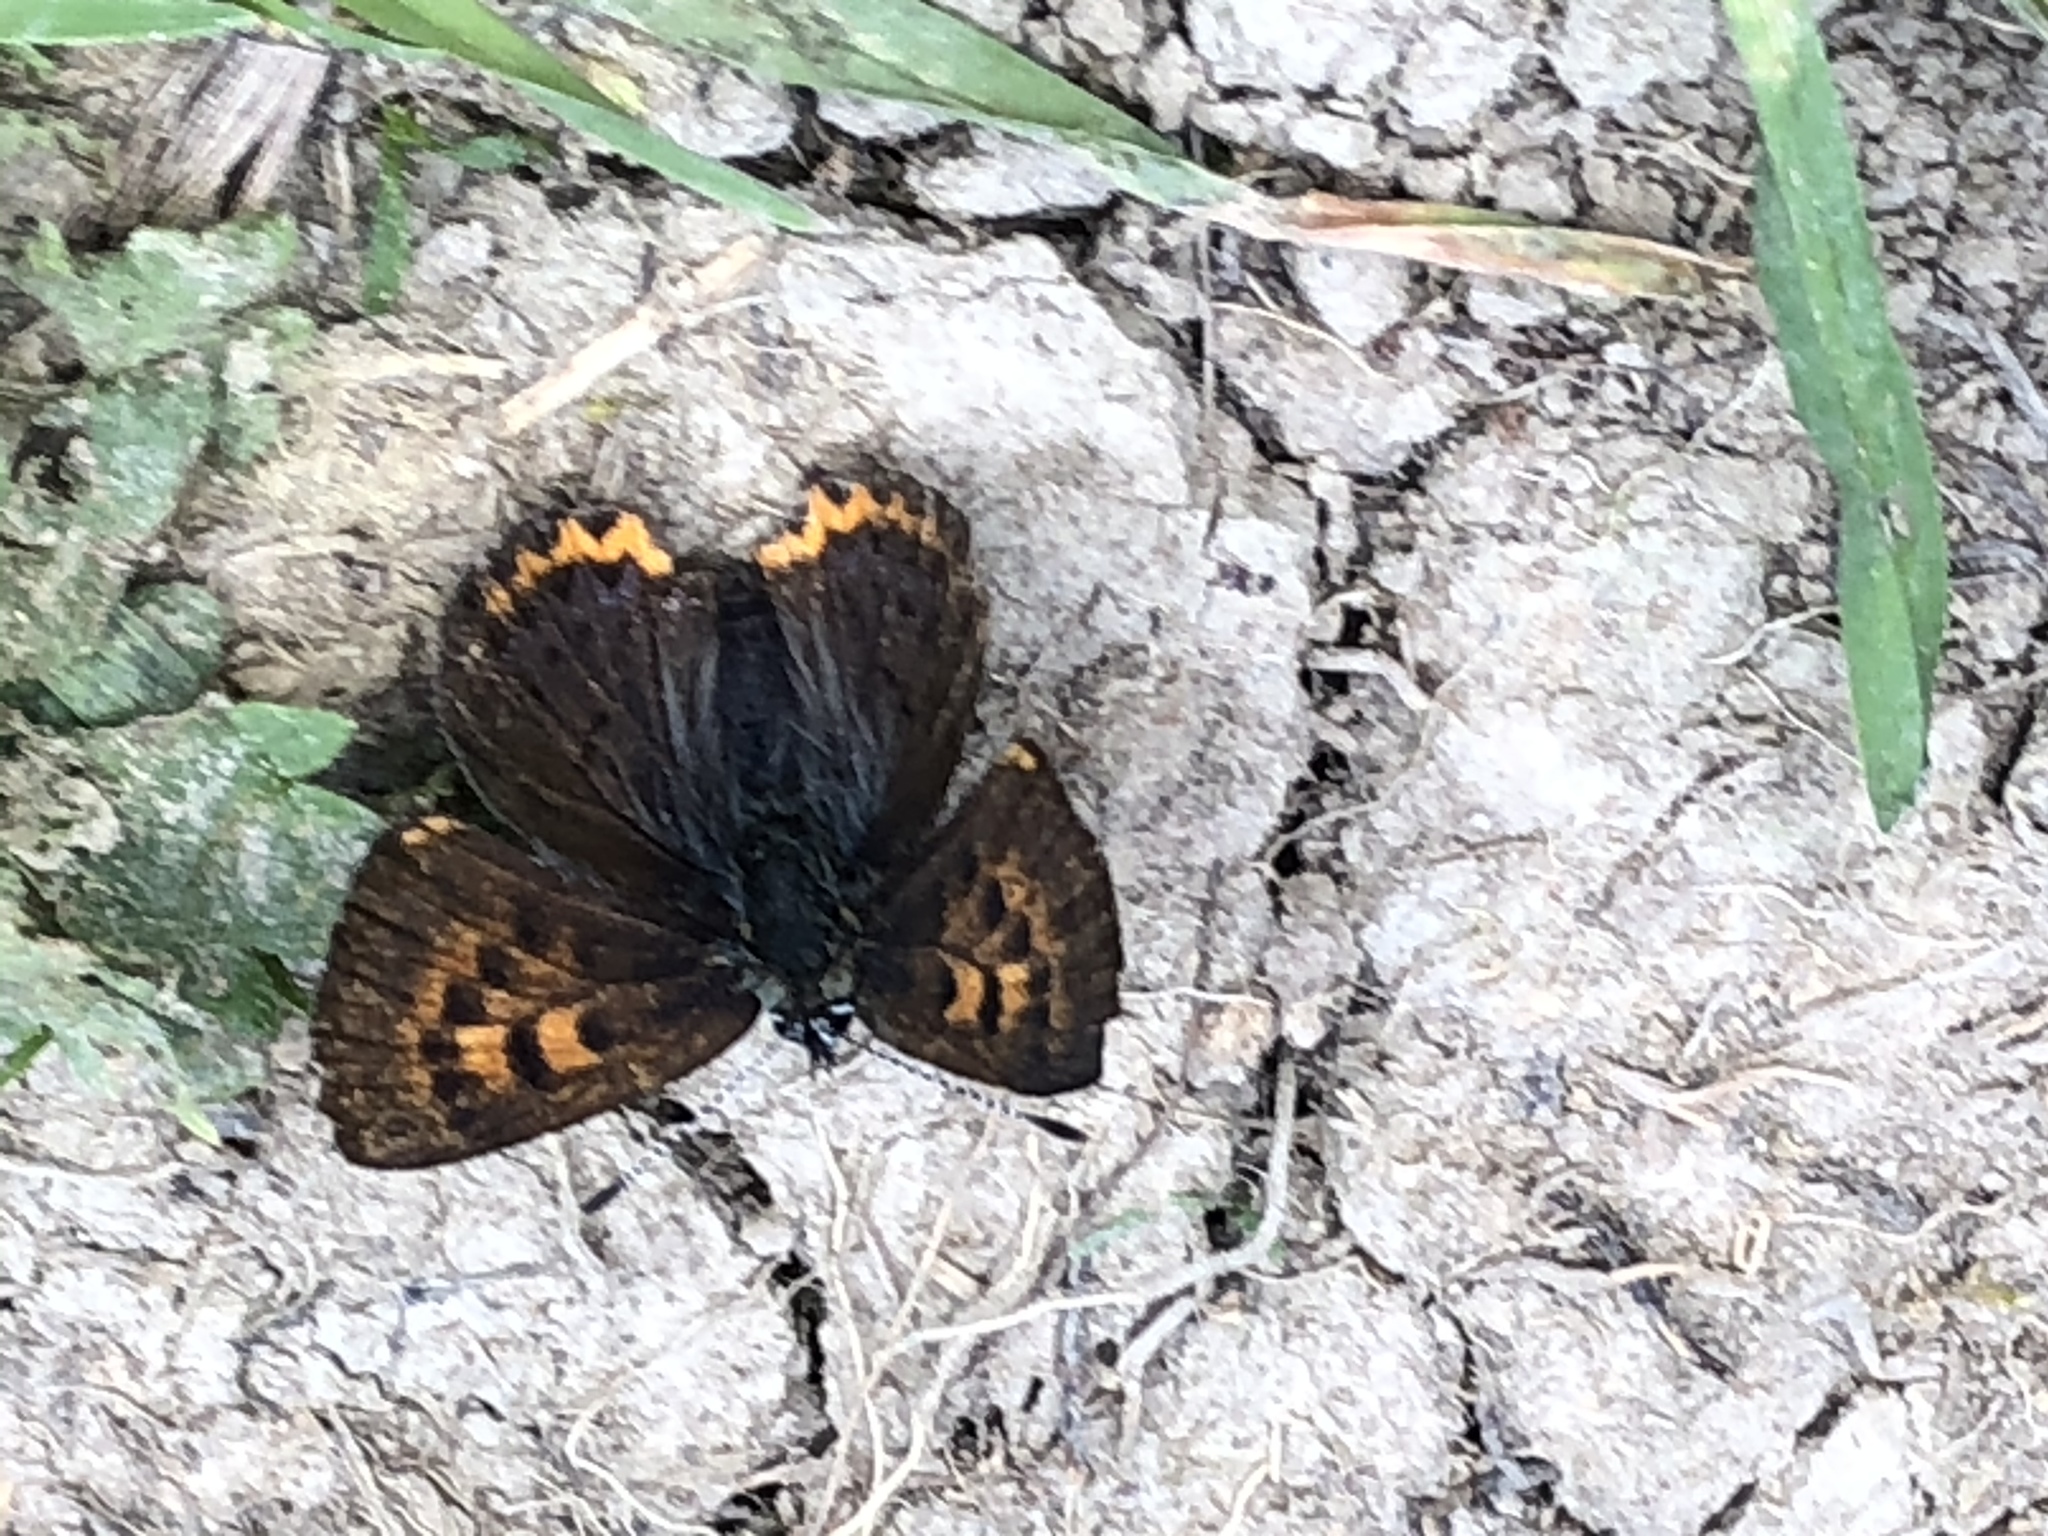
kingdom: Animalia
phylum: Arthropoda
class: Insecta
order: Lepidoptera
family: Lycaenidae
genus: Helleia
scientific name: Helleia helle
